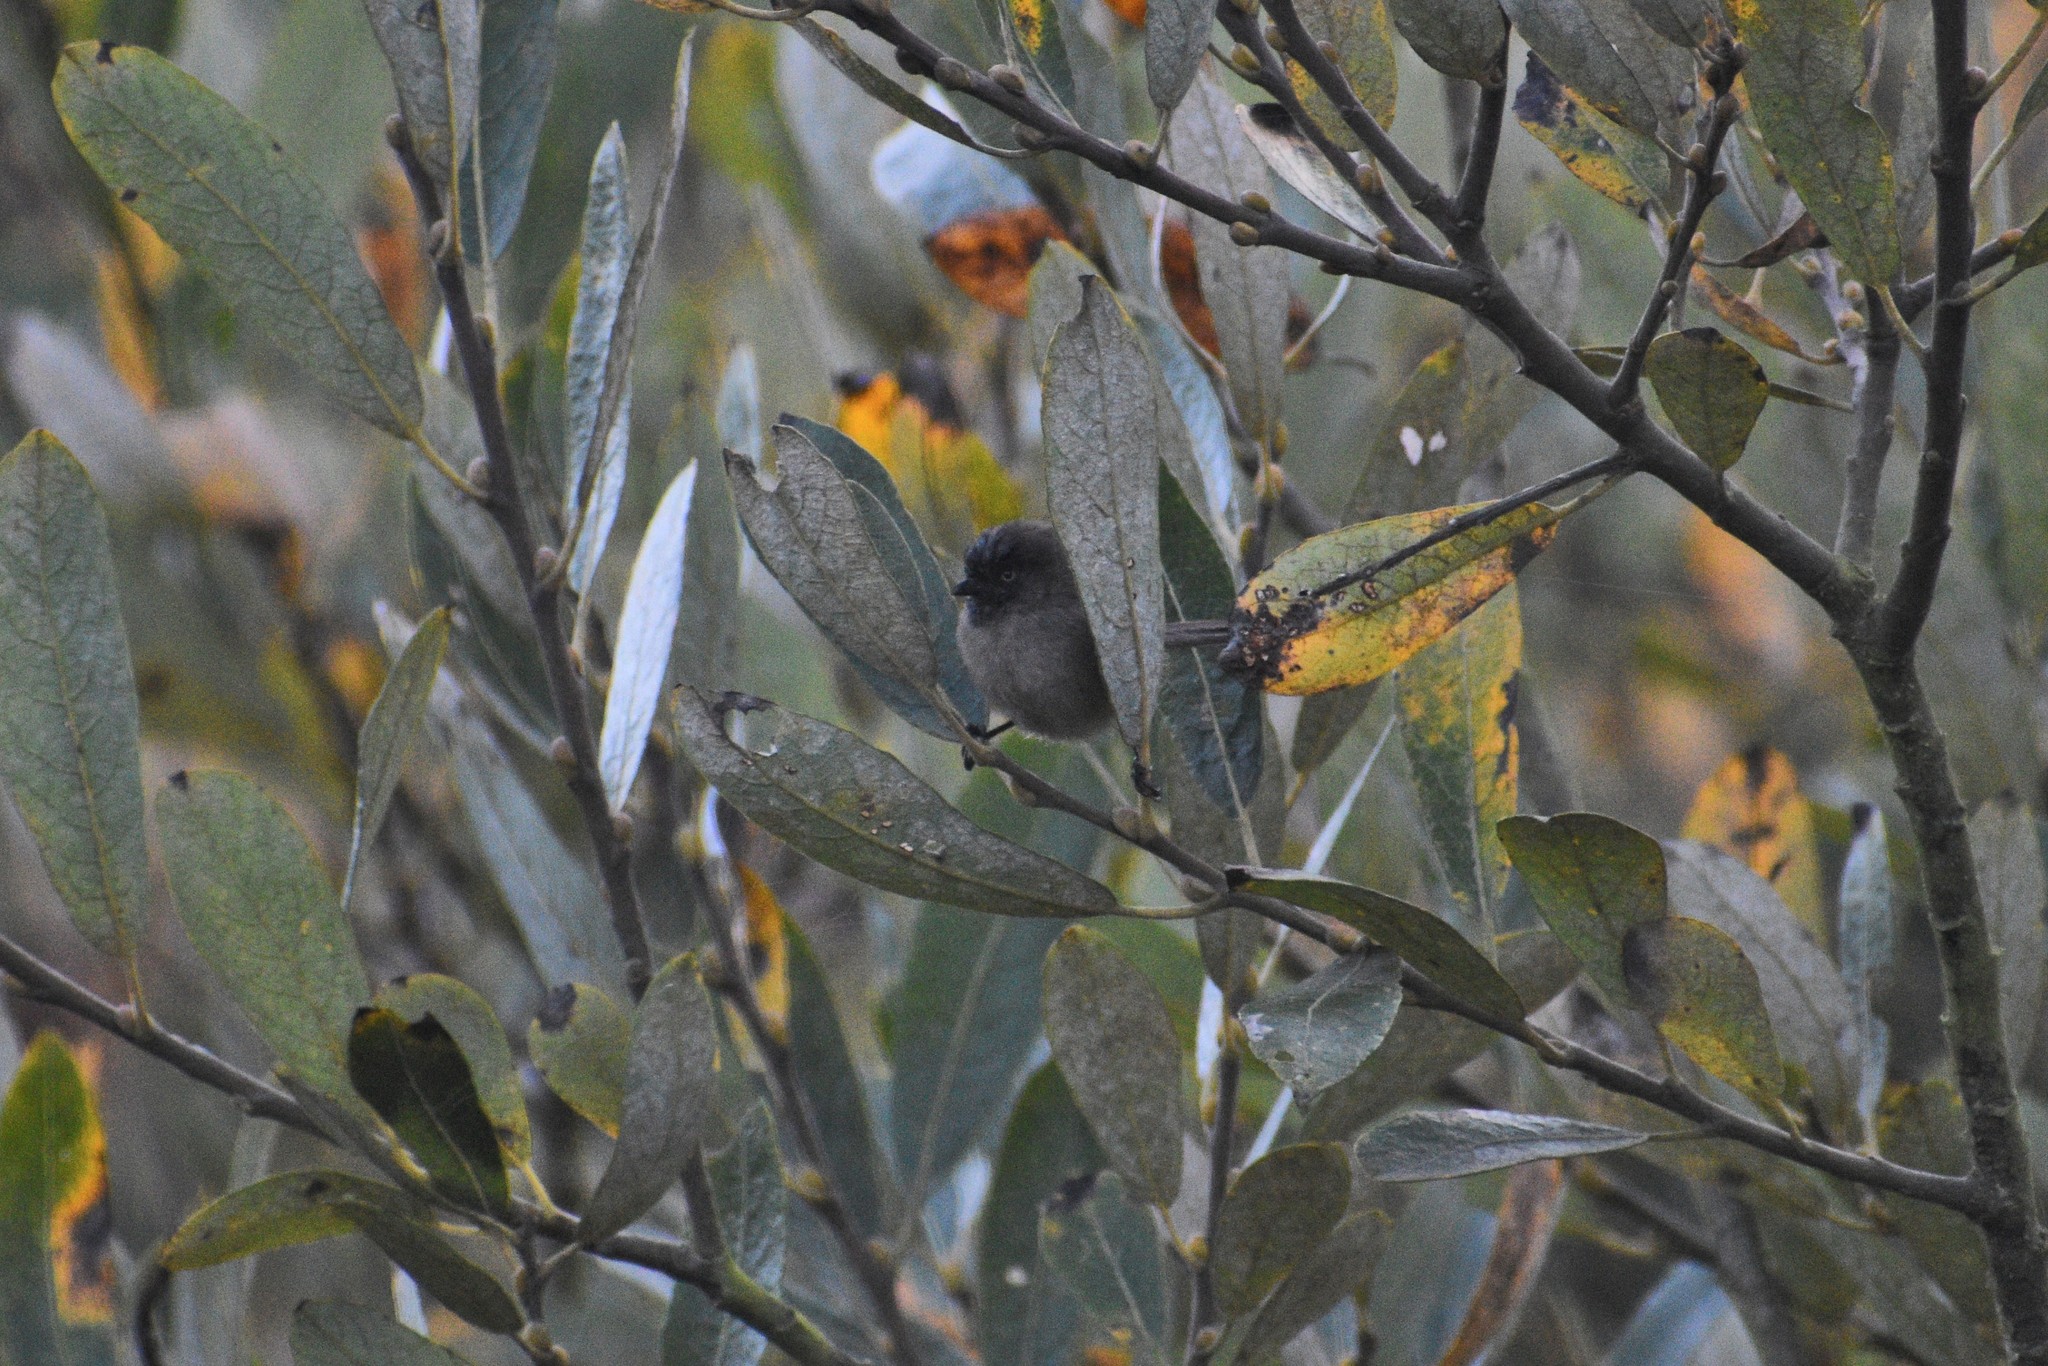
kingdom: Animalia
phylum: Chordata
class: Aves
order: Passeriformes
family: Aegithalidae
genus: Psaltriparus
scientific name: Psaltriparus minimus
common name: American bushtit
